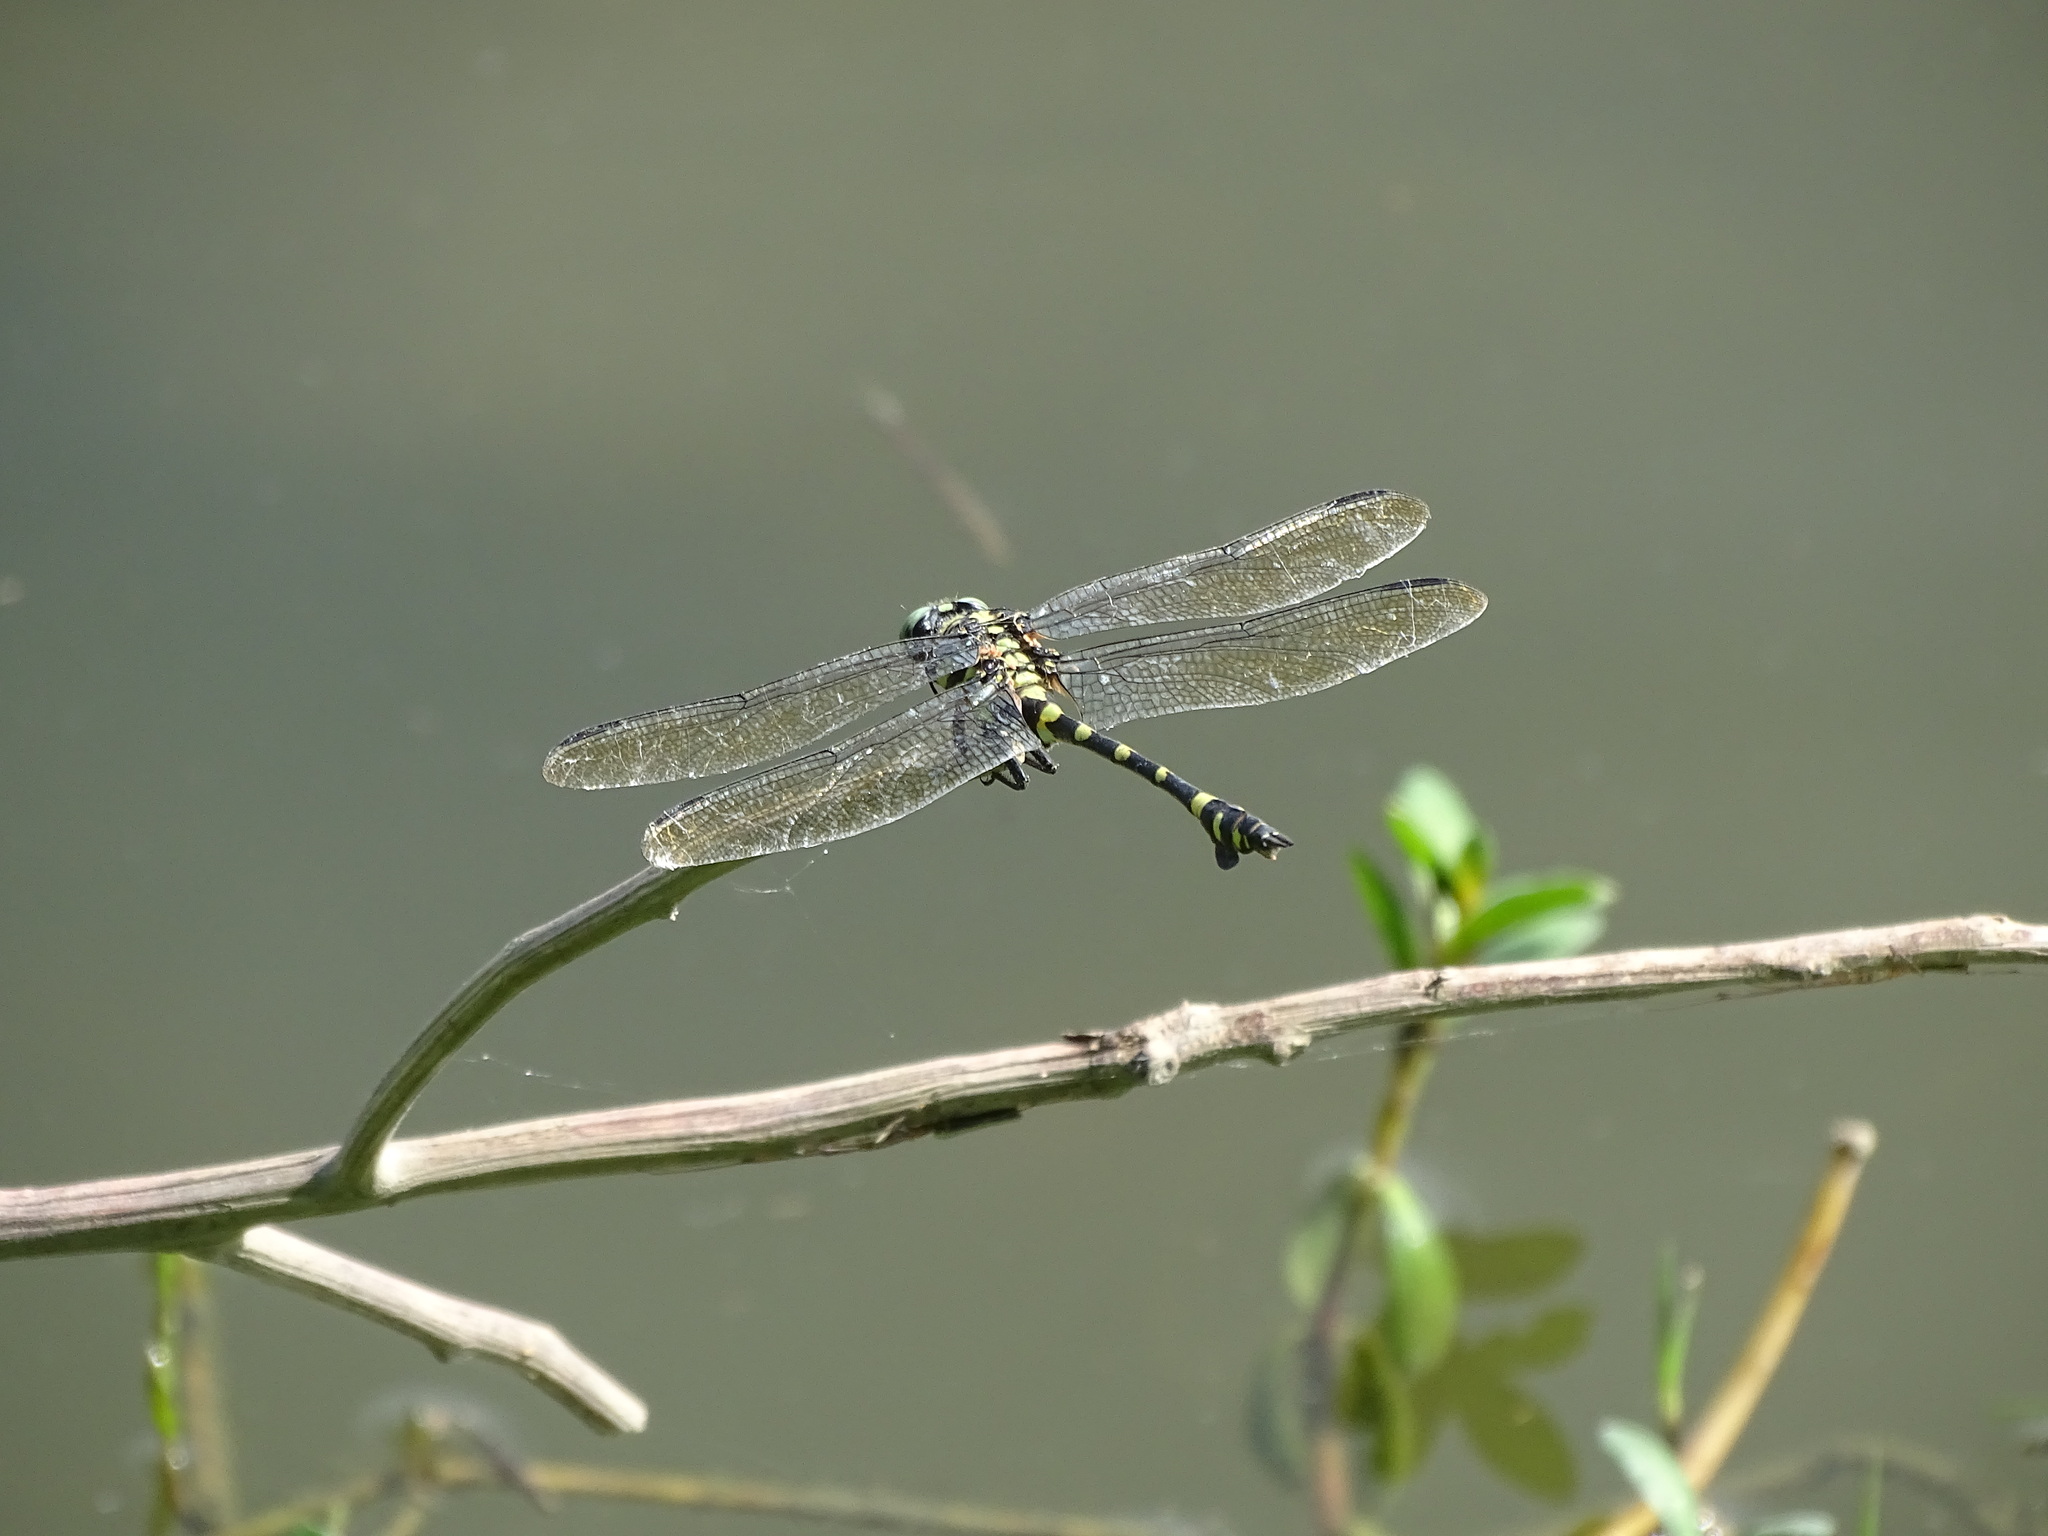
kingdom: Animalia
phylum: Arthropoda
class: Insecta
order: Odonata
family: Gomphidae
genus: Ictinogomphus
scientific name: Ictinogomphus rapax
